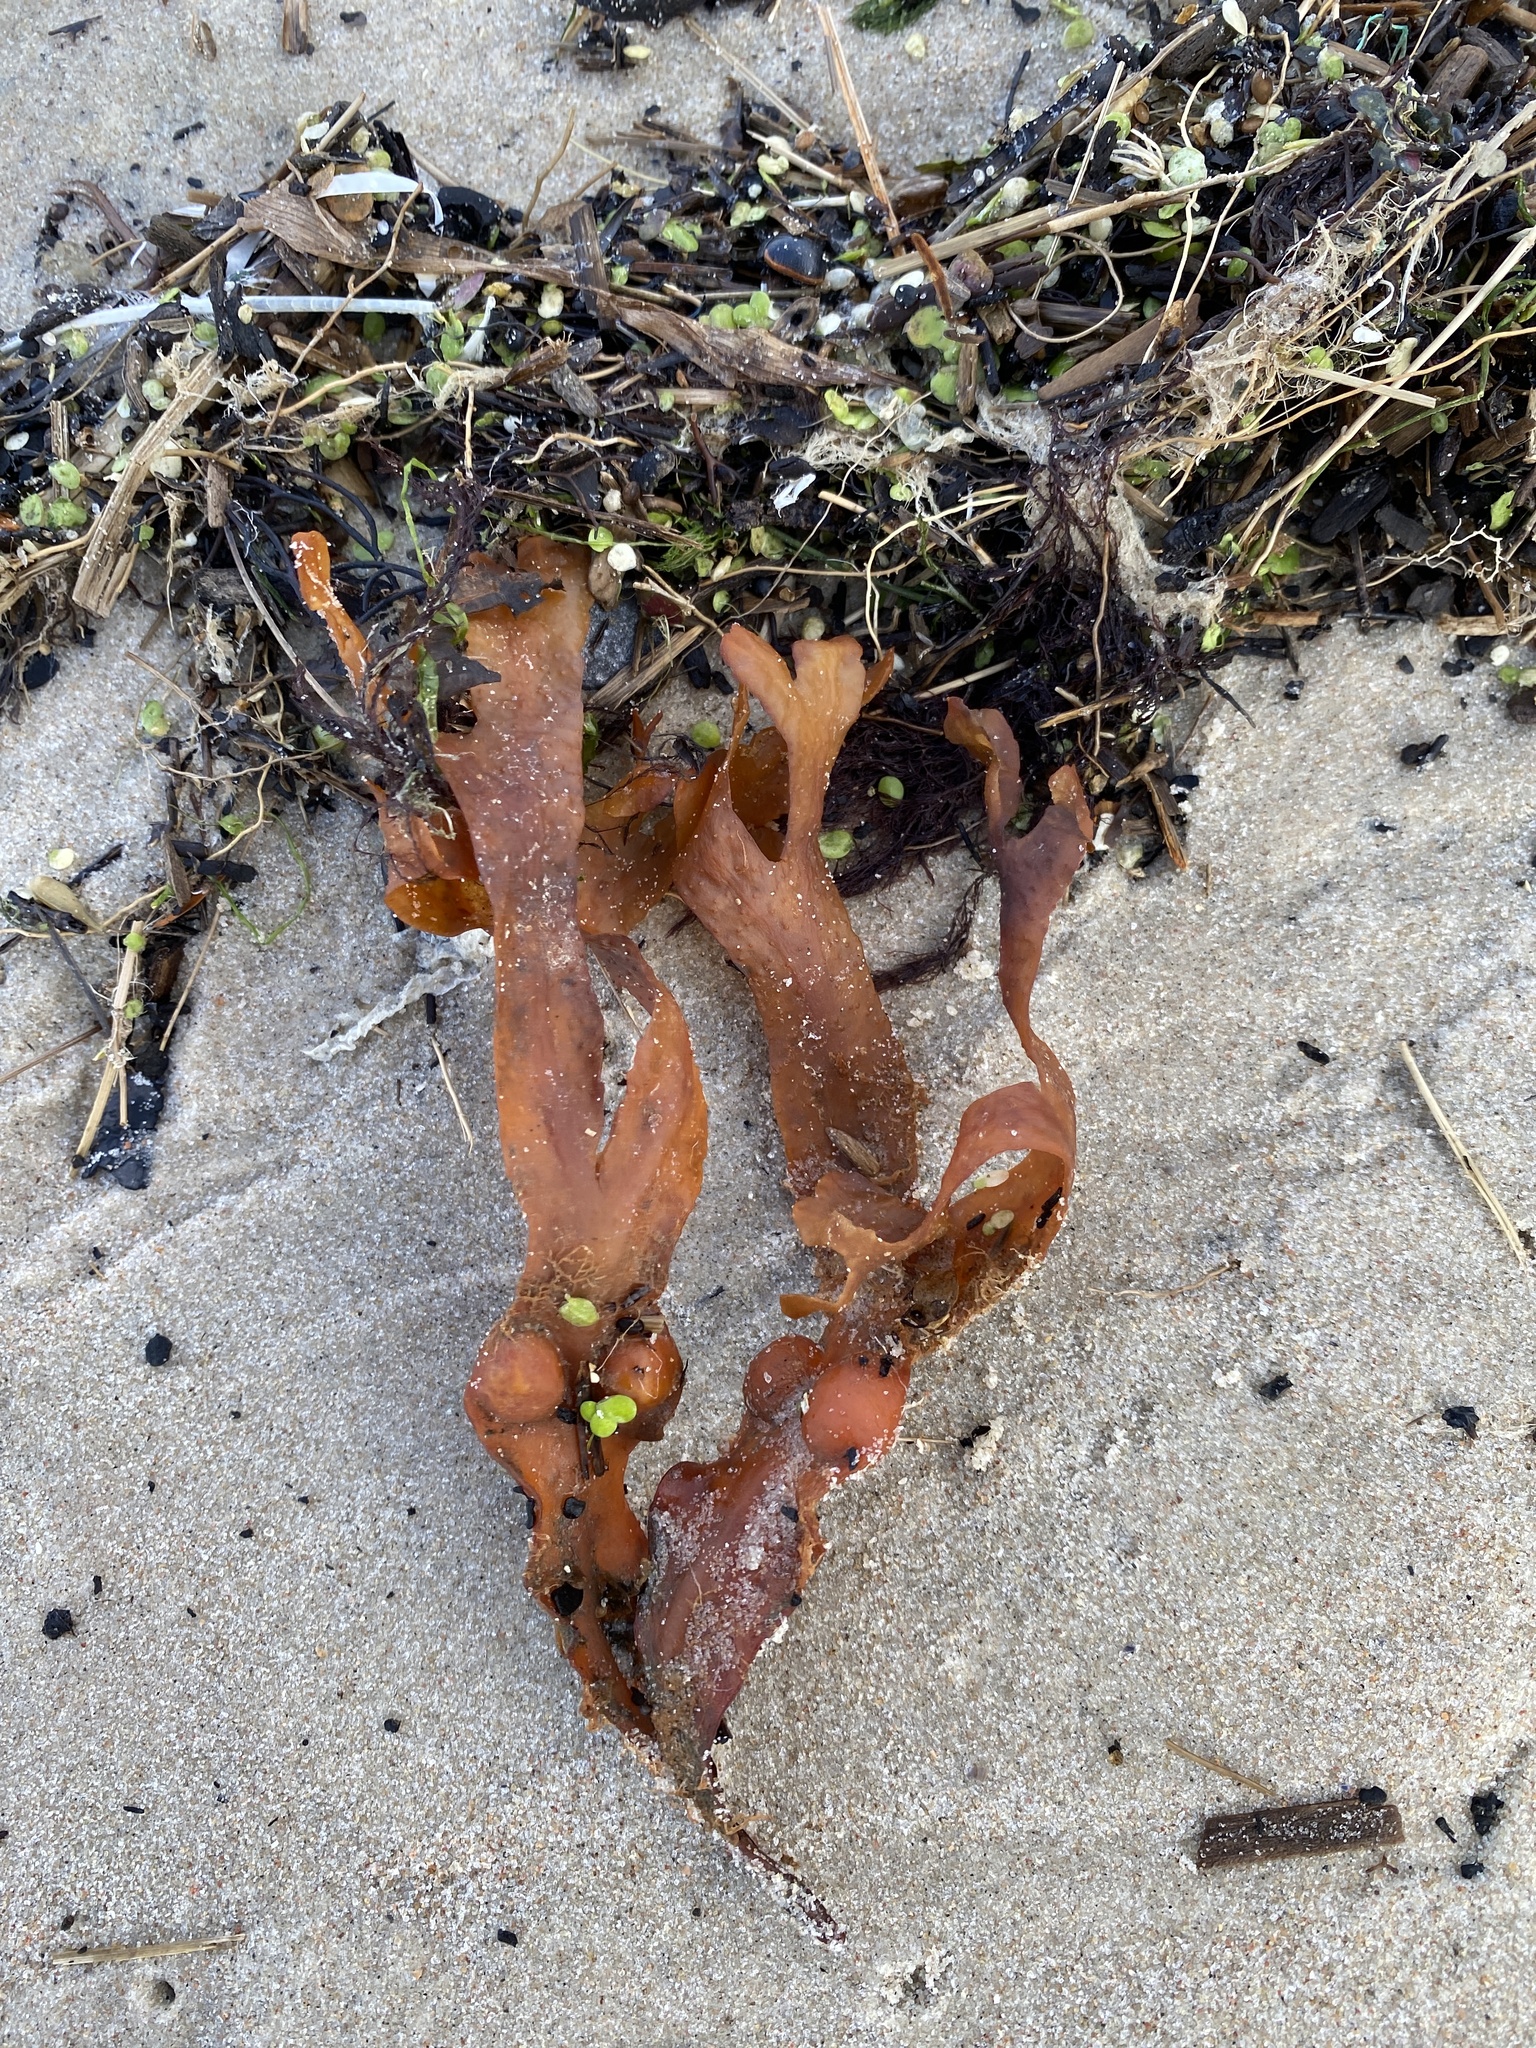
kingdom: Chromista
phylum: Ochrophyta
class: Phaeophyceae
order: Fucales
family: Fucaceae
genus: Fucus
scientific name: Fucus vesiculosus
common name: Bladder wrack
